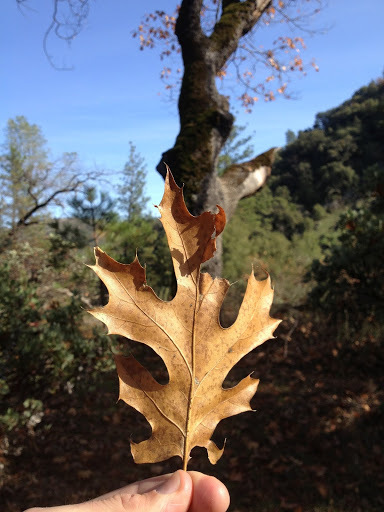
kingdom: Plantae
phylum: Tracheophyta
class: Magnoliopsida
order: Fagales
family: Fagaceae
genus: Quercus
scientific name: Quercus kelloggii
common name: California black oak
